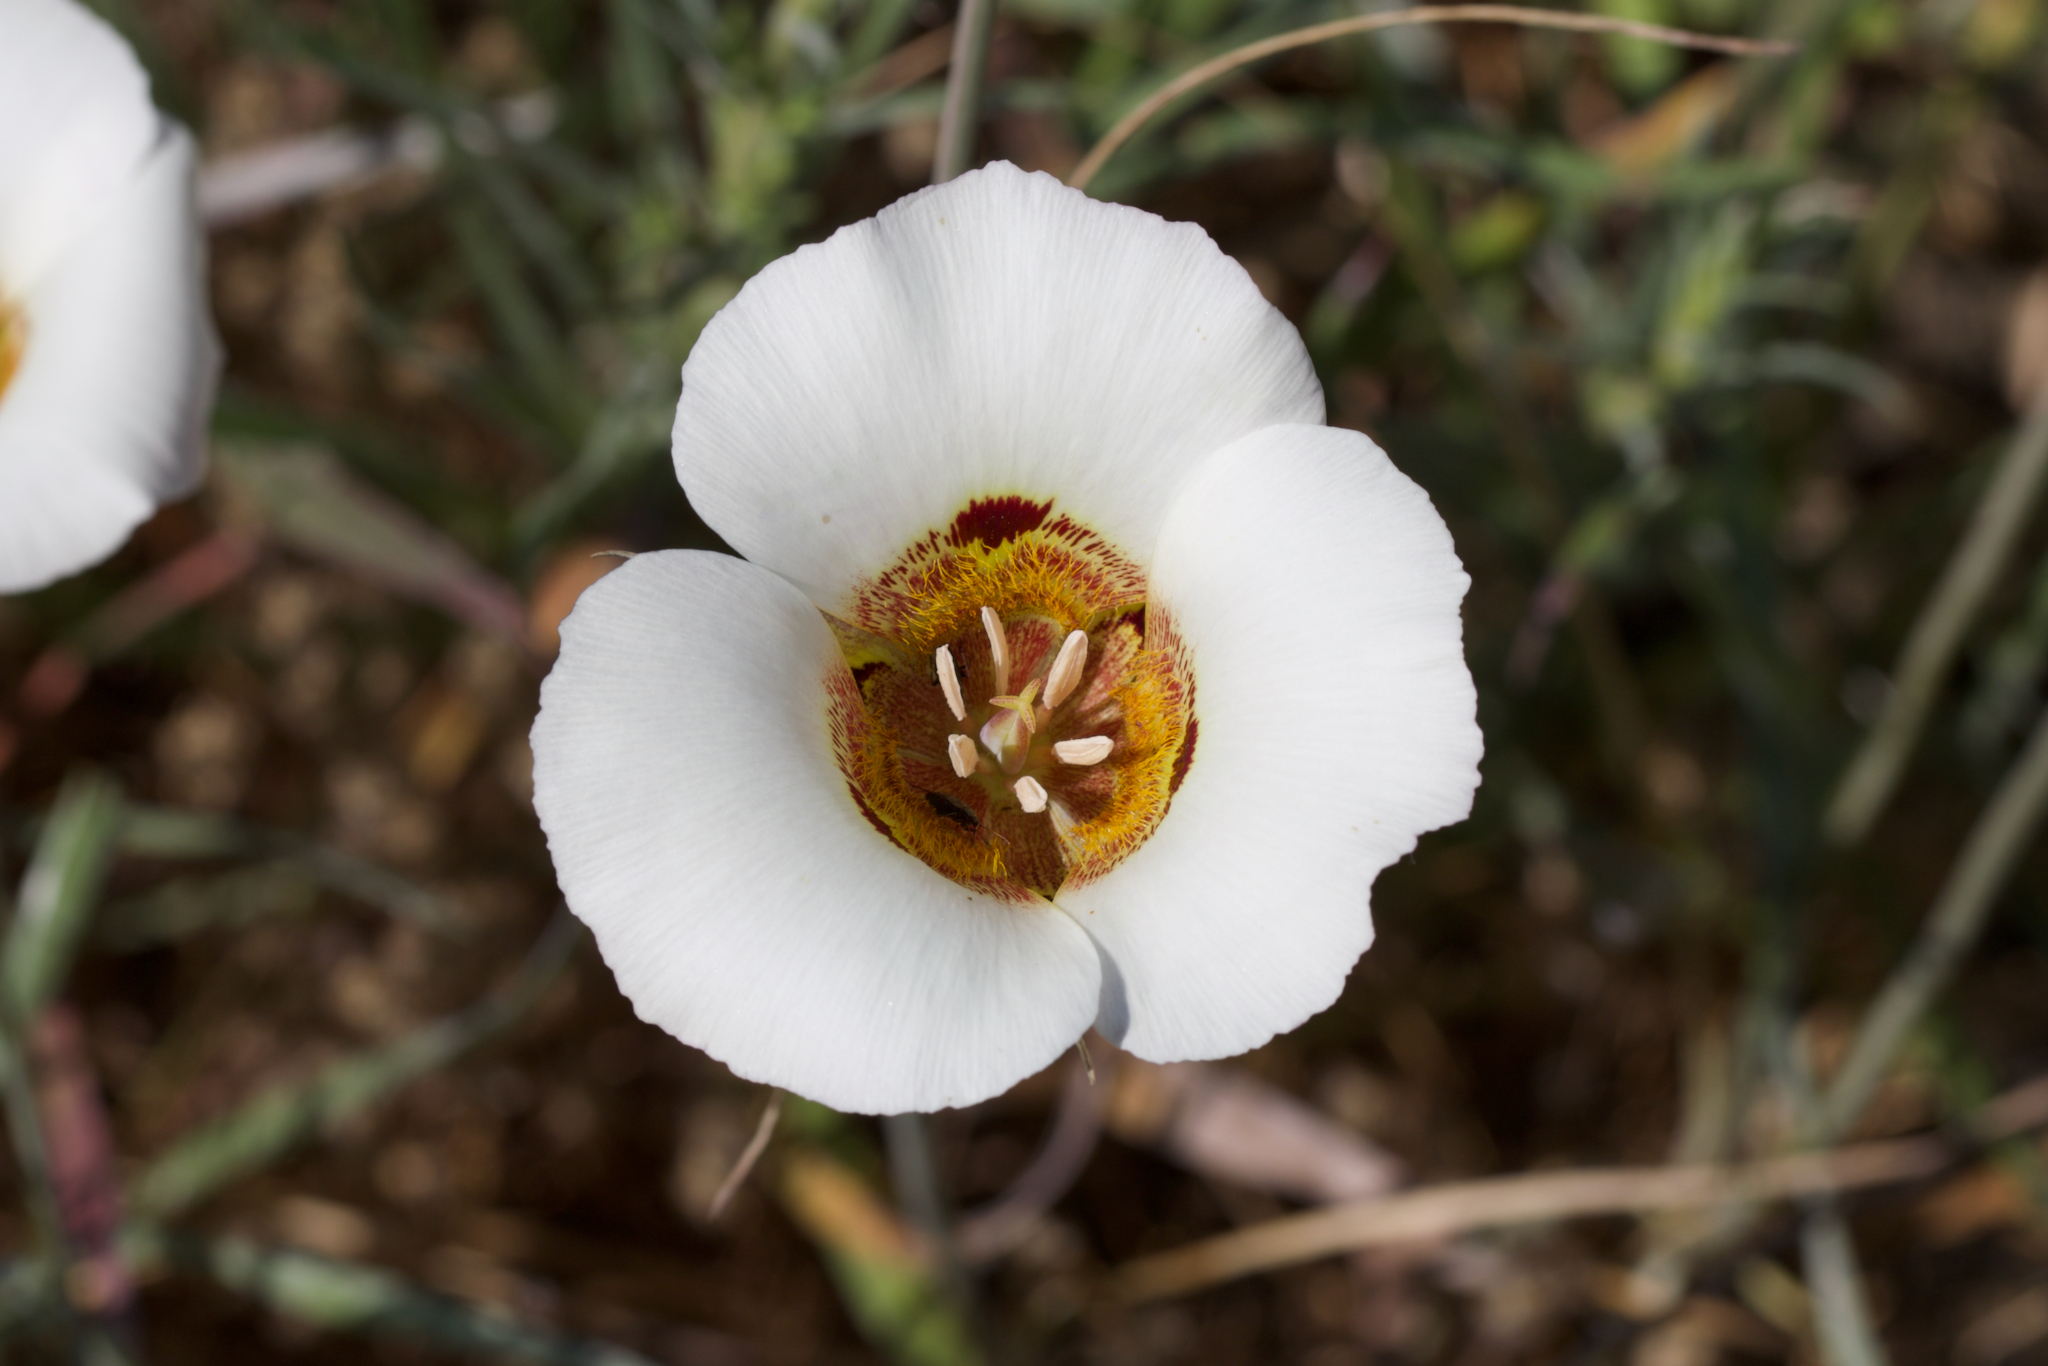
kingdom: Plantae
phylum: Tracheophyta
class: Liliopsida
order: Liliales
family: Liliaceae
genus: Calochortus
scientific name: Calochortus vestae
